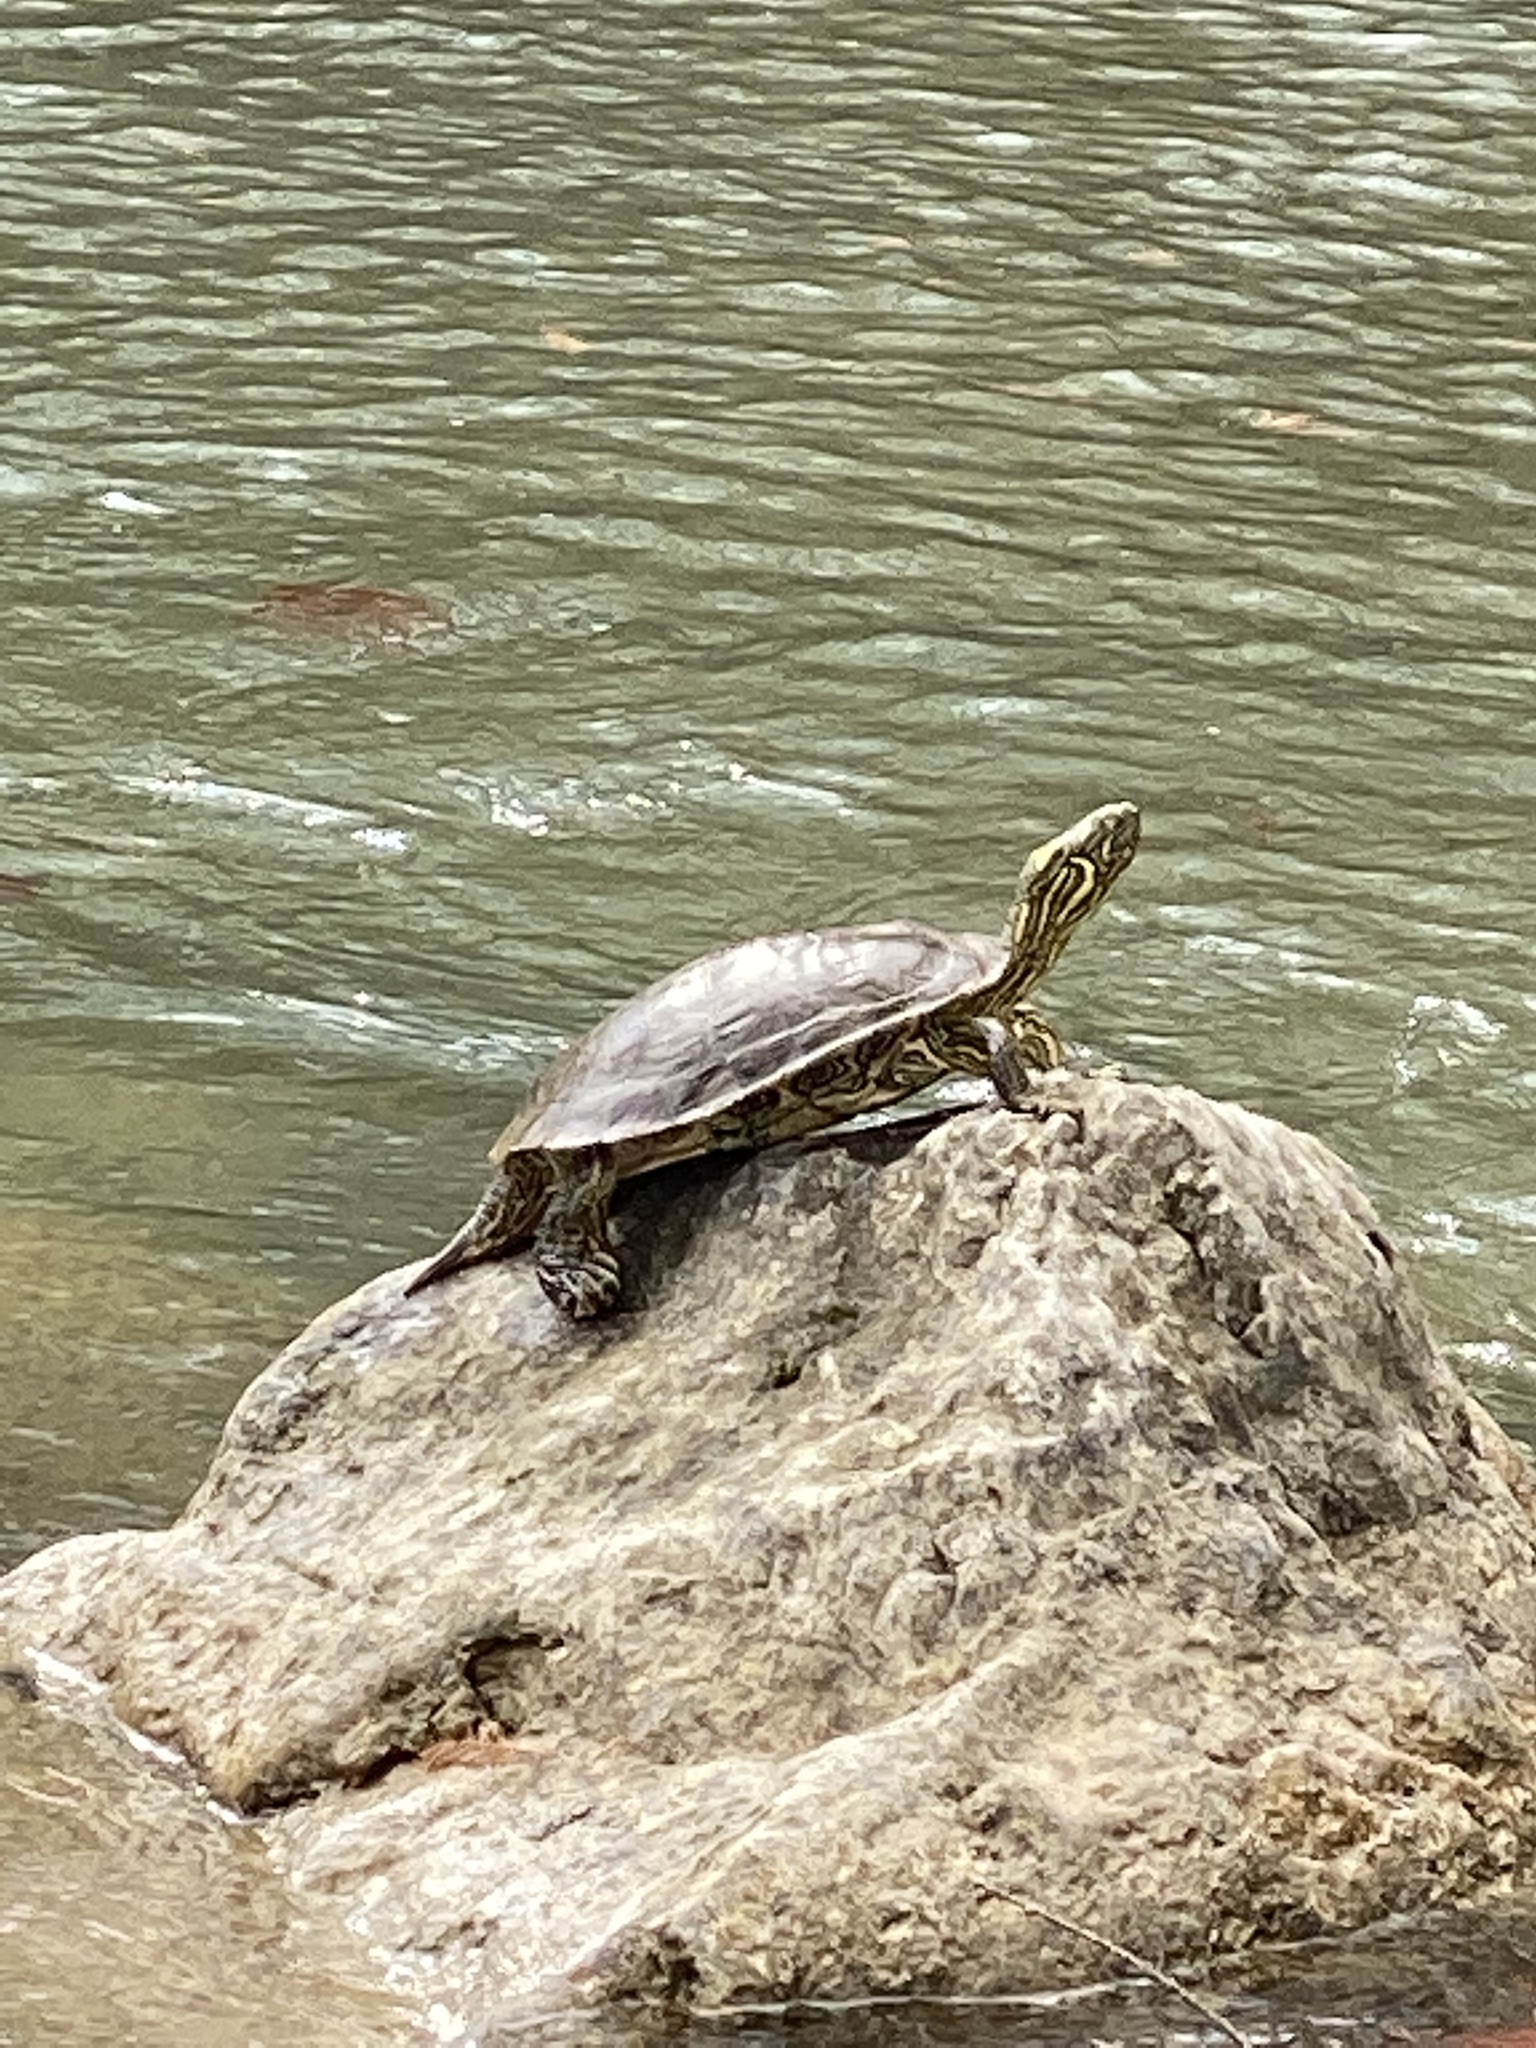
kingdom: Animalia
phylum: Chordata
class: Testudines
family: Emydidae
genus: Pseudemys
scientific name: Pseudemys texana
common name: Texas river cooter
